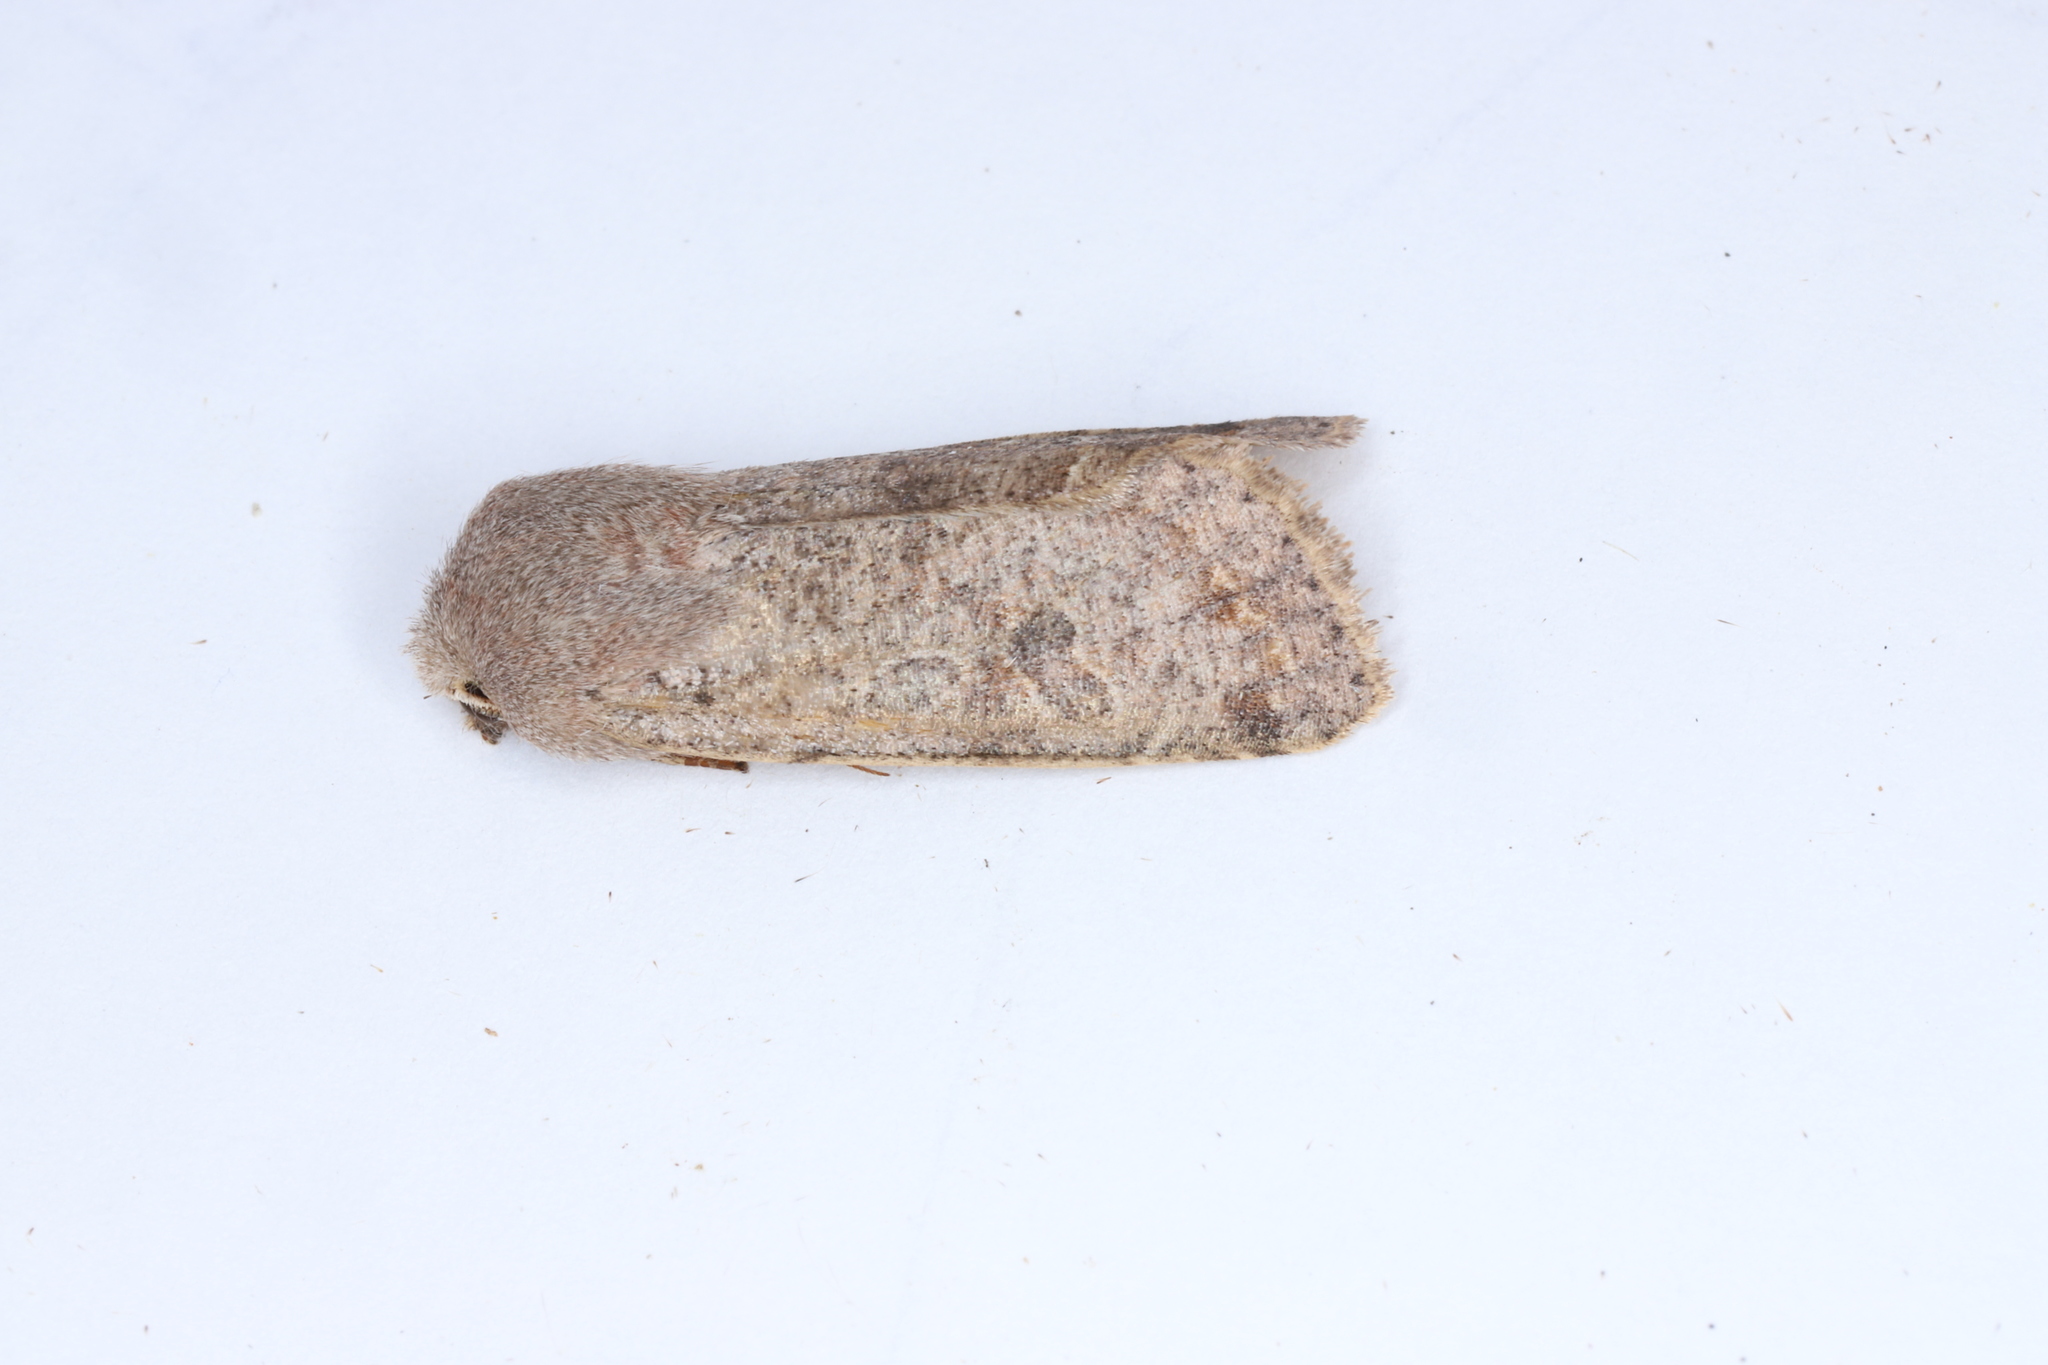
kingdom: Animalia
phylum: Arthropoda
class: Insecta
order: Lepidoptera
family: Noctuidae
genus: Orthosia
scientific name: Orthosia hibisci
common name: Green fruitworm
